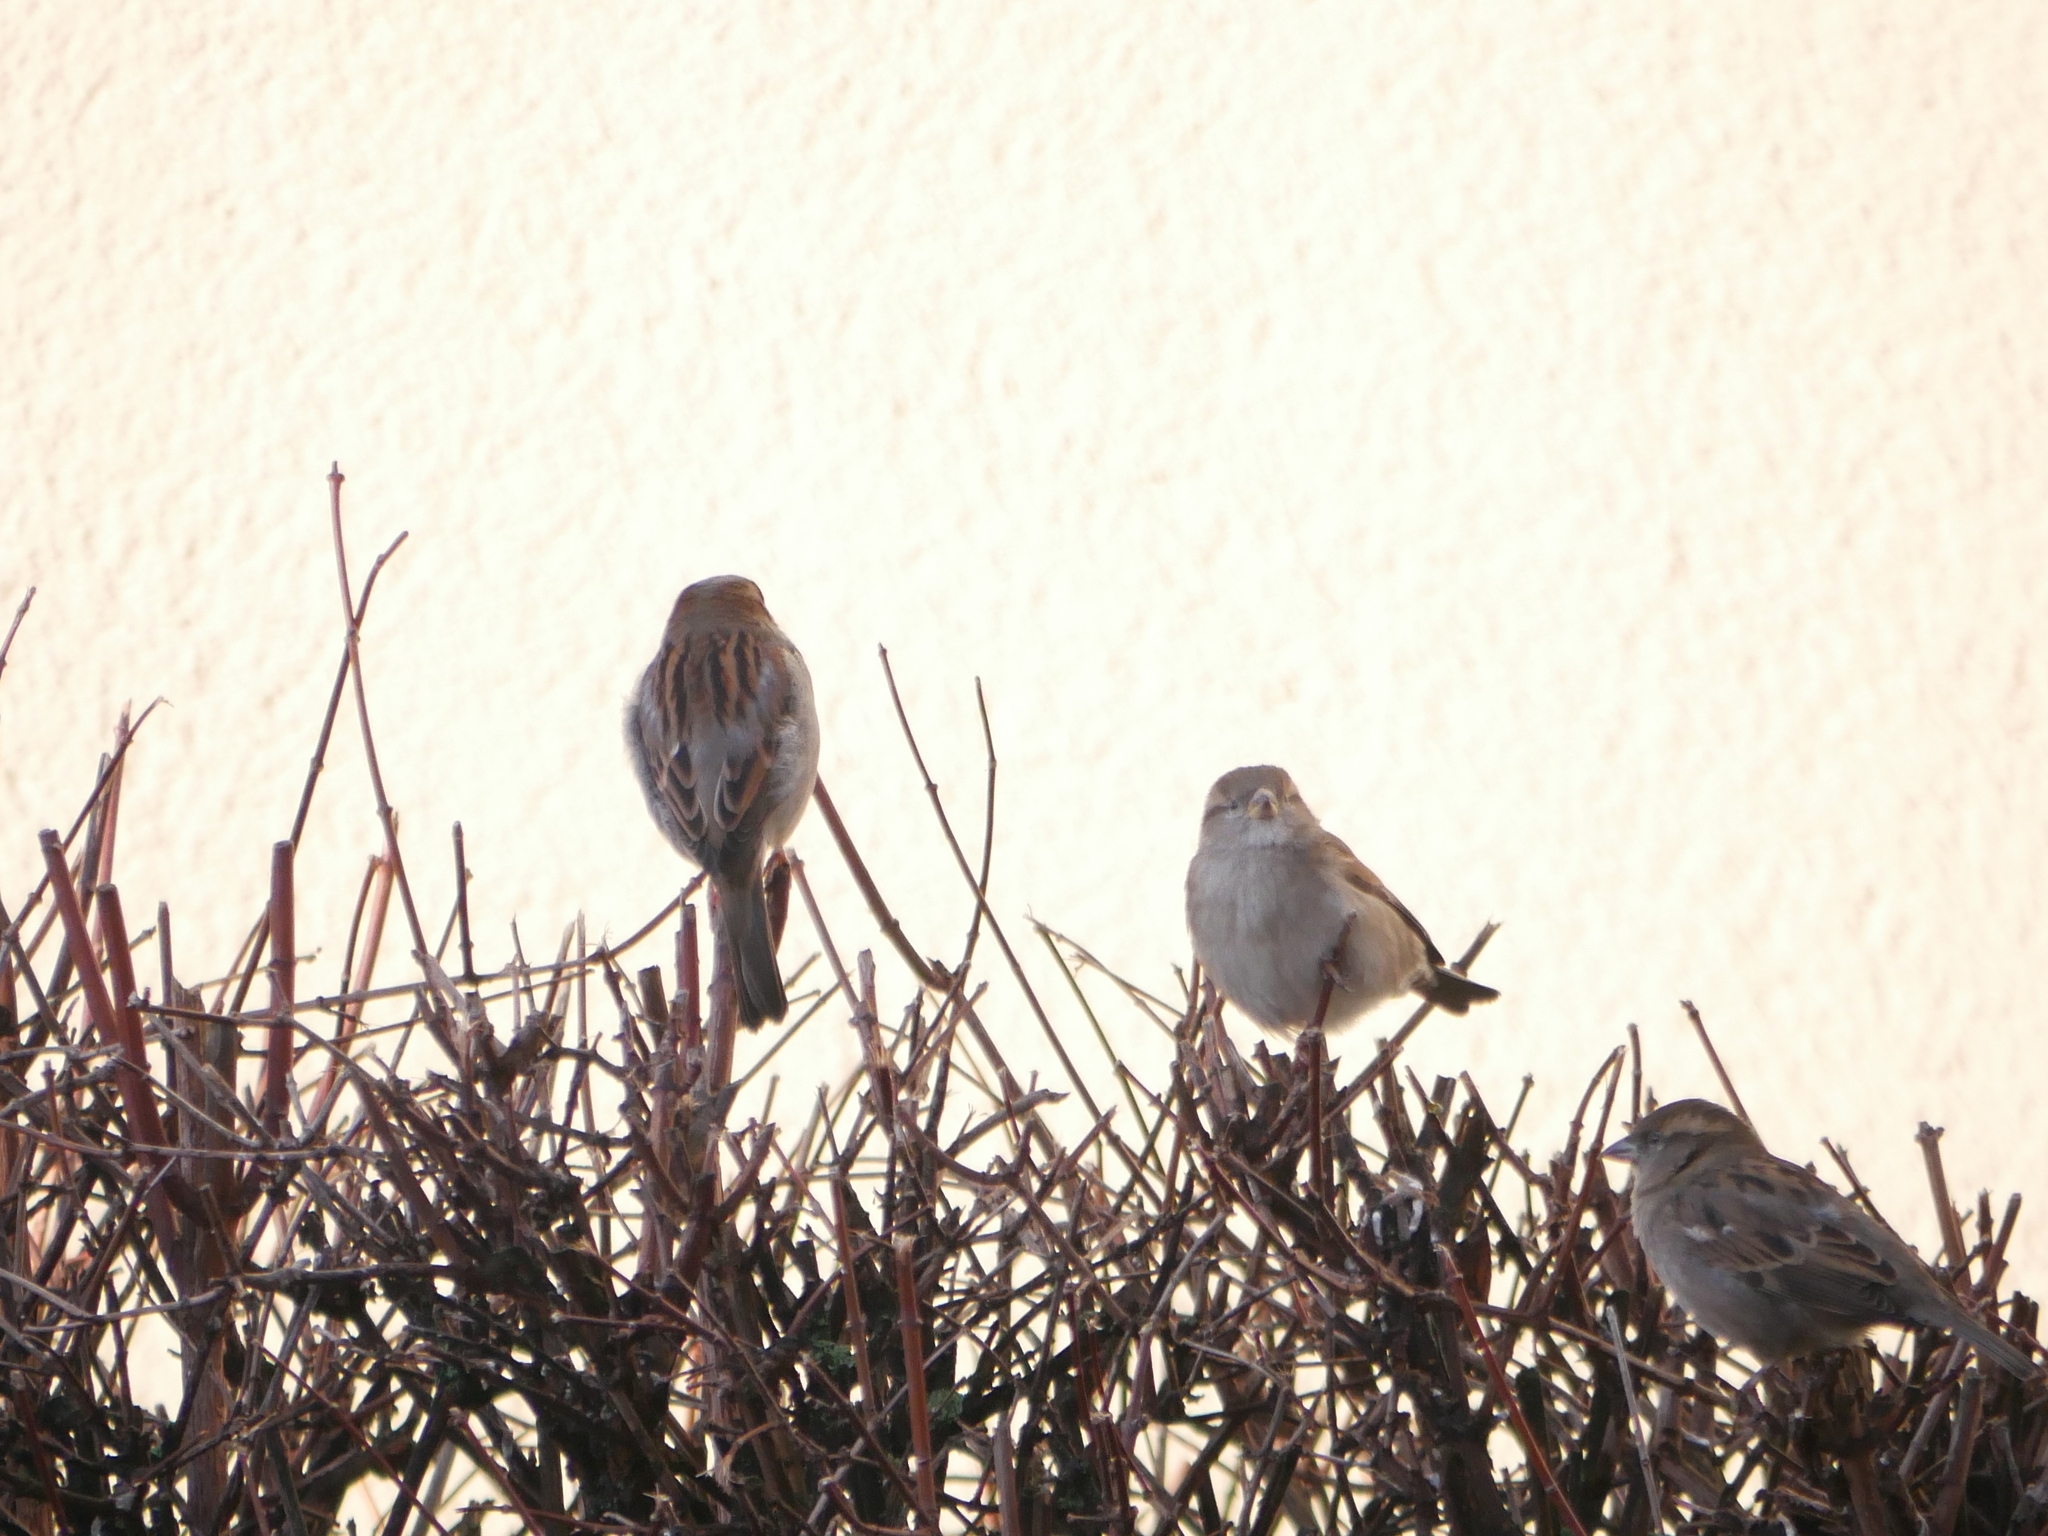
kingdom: Animalia
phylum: Chordata
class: Aves
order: Passeriformes
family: Passeridae
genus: Passer
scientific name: Passer domesticus
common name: House sparrow
